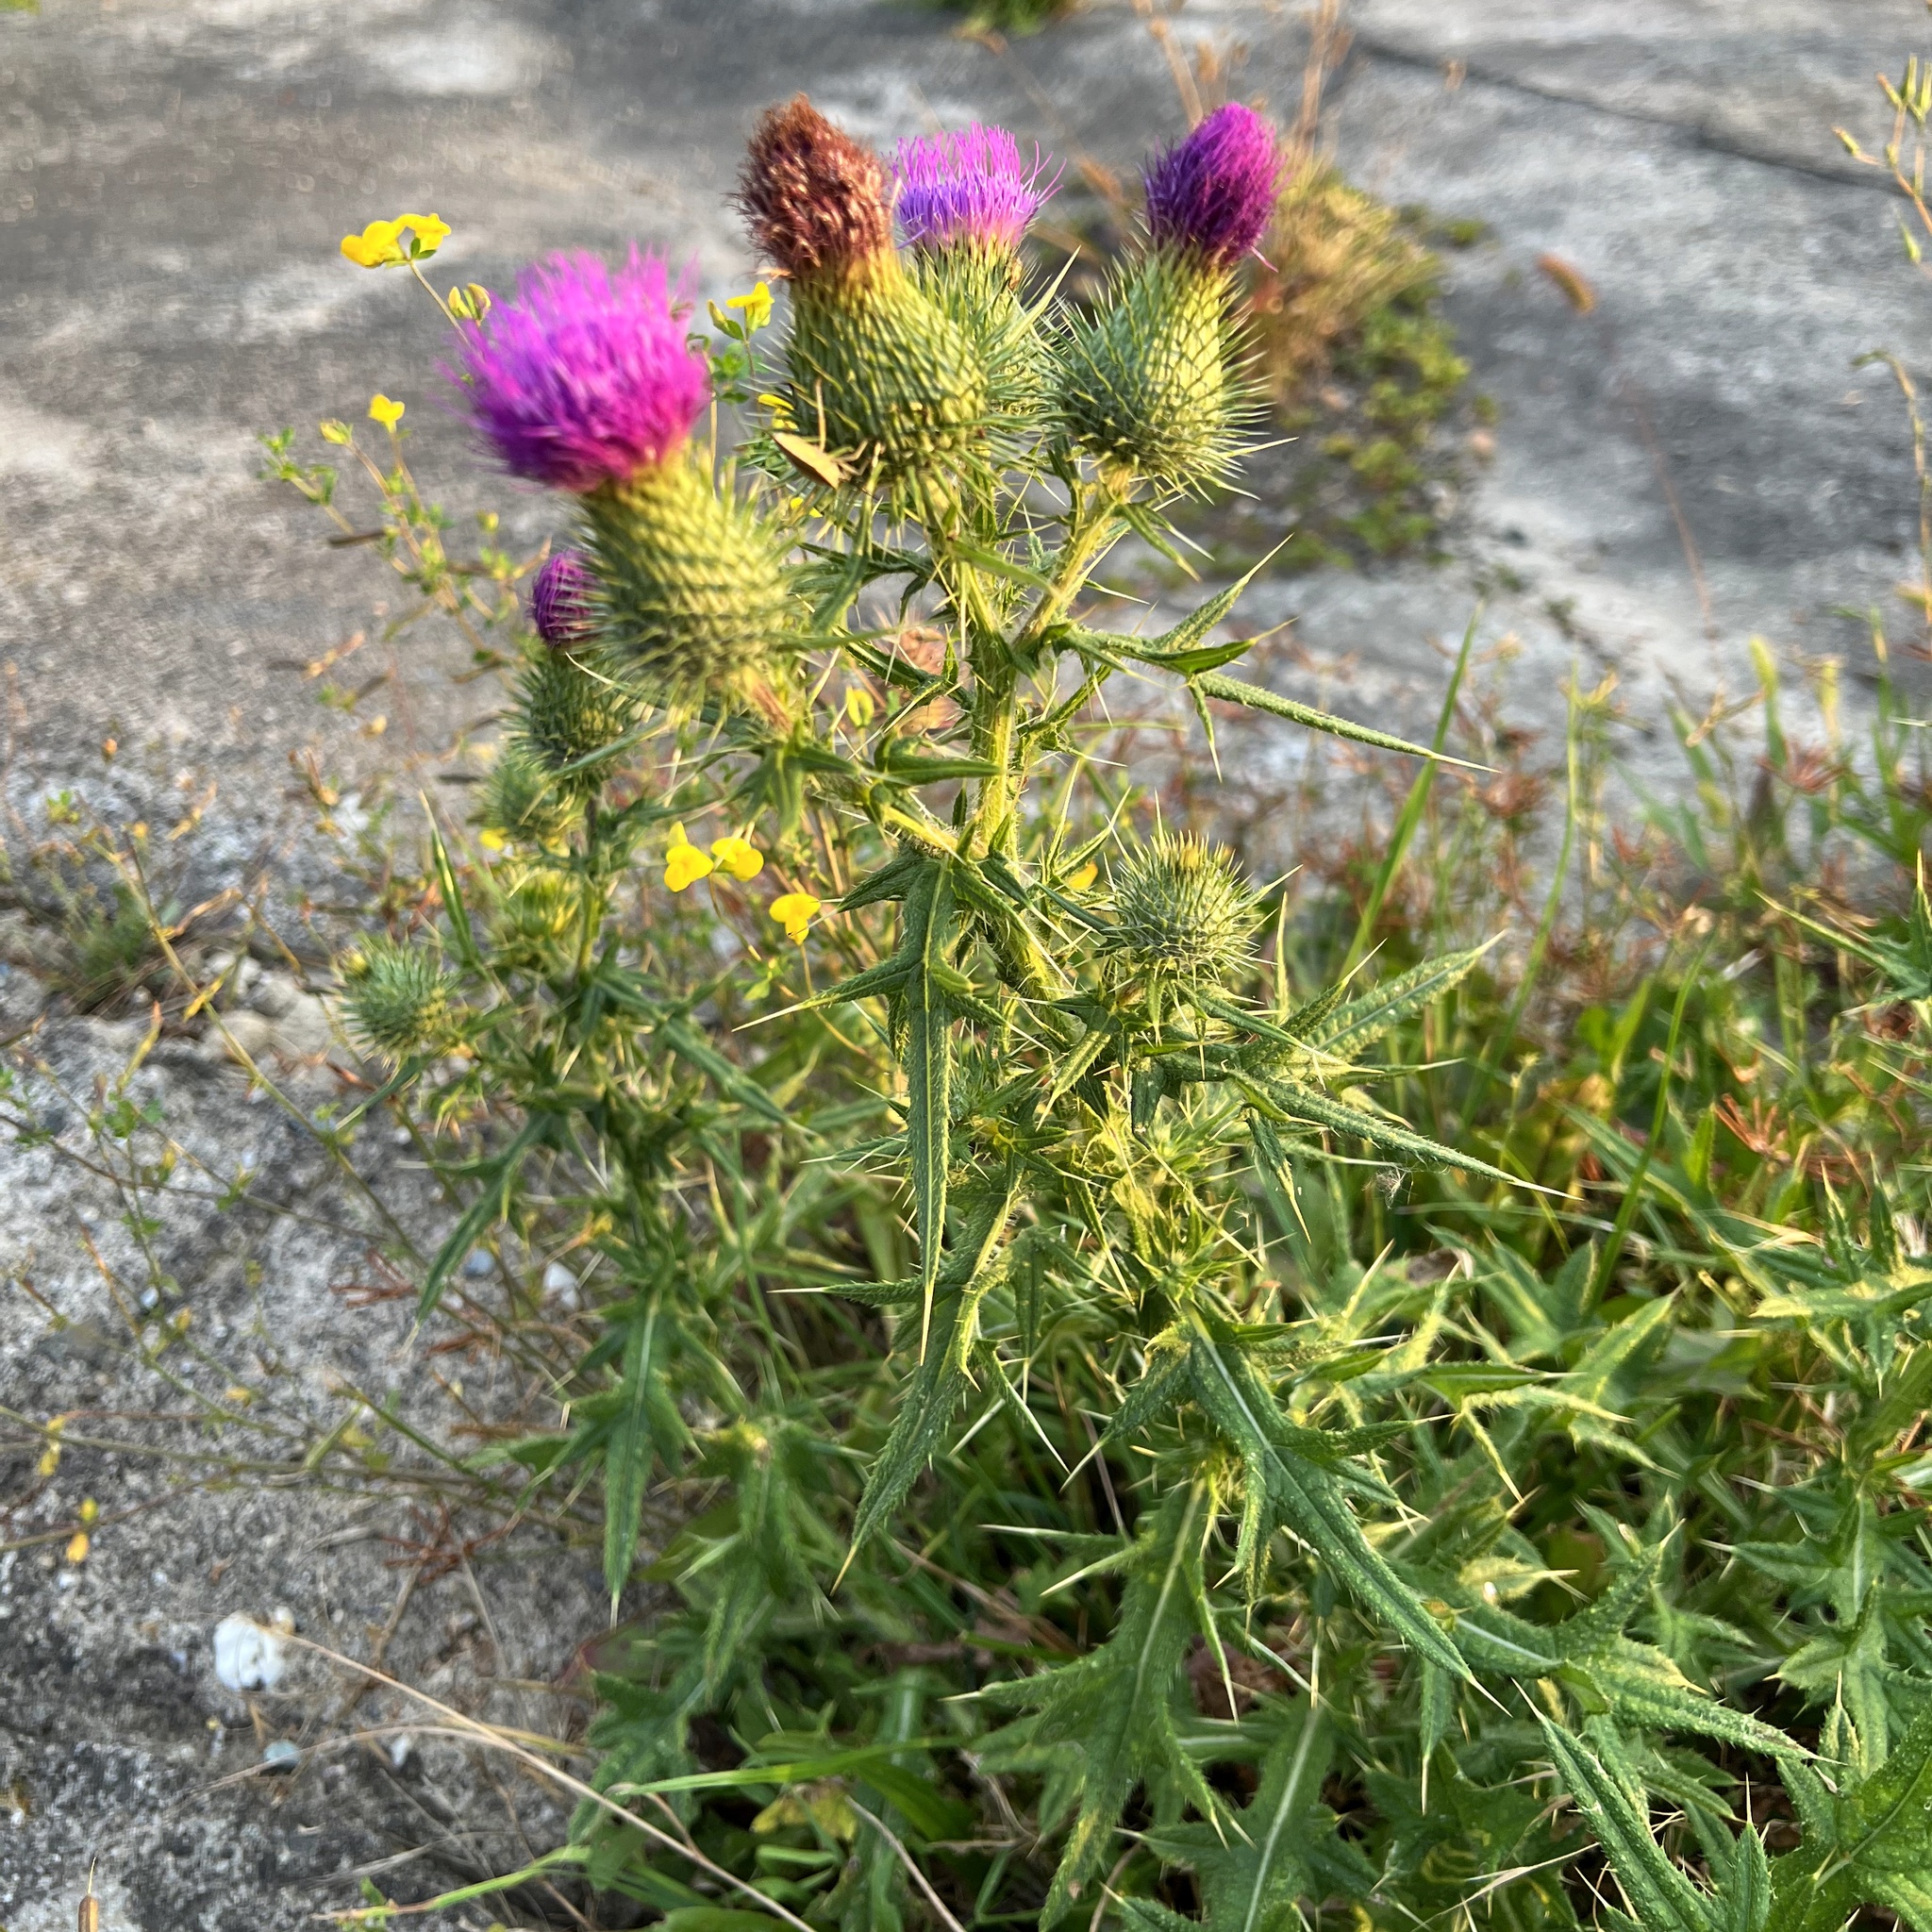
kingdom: Plantae
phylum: Tracheophyta
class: Magnoliopsida
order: Asterales
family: Asteraceae
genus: Cirsium
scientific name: Cirsium vulgare
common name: Bull thistle
